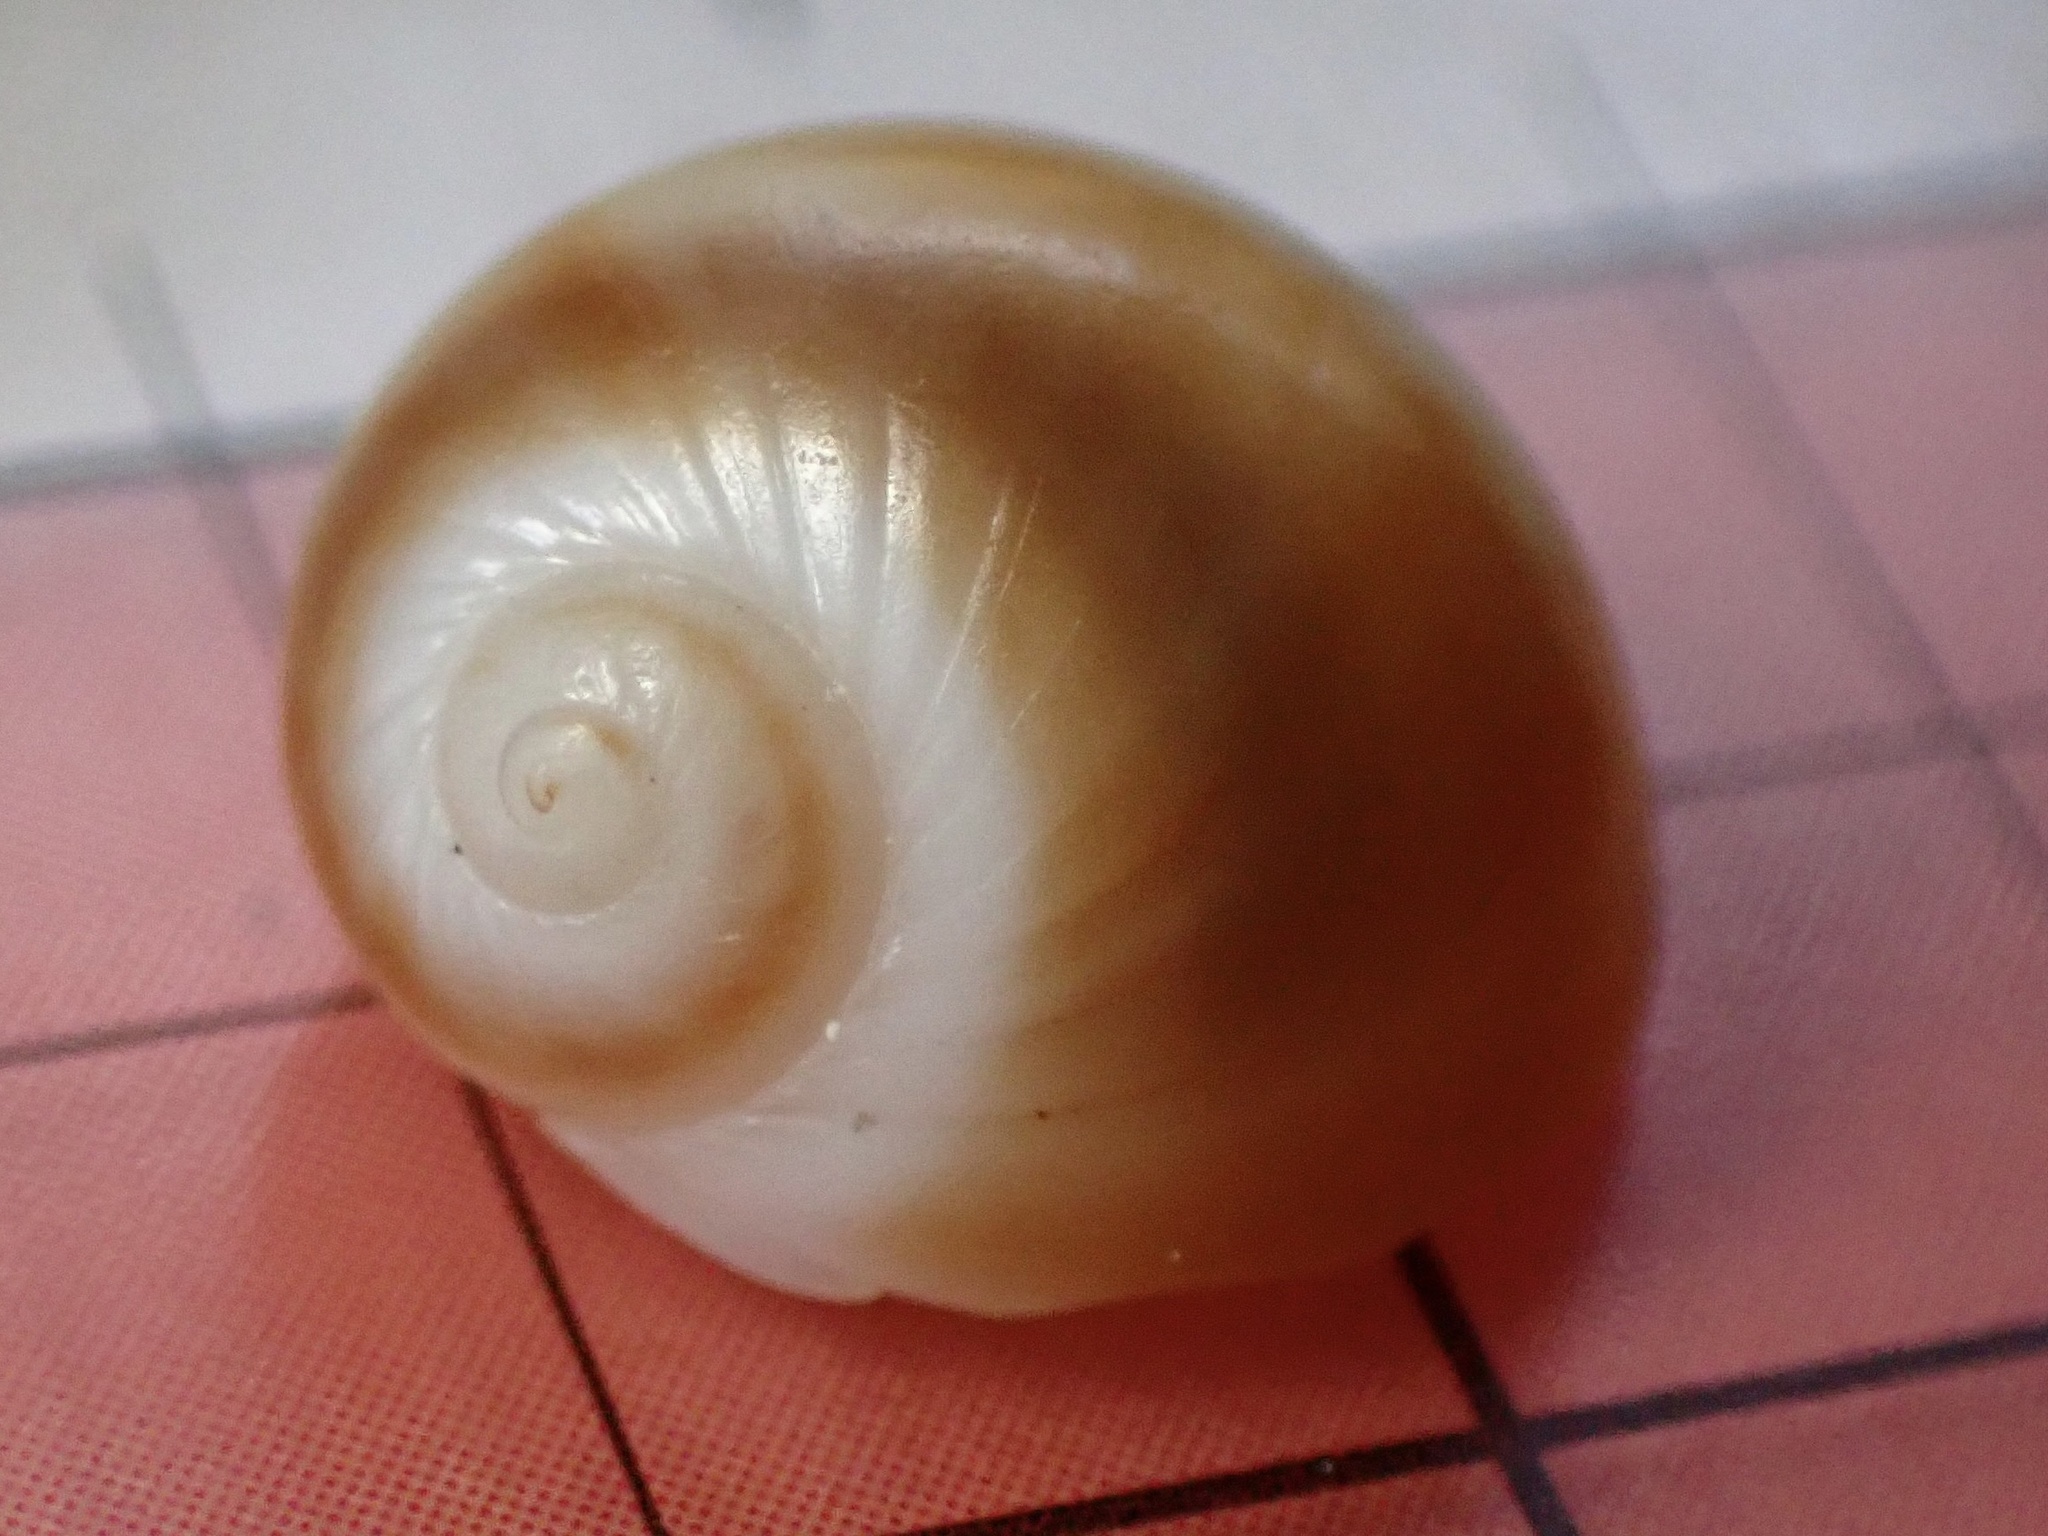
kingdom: Animalia
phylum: Mollusca
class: Gastropoda
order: Littorinimorpha
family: Naticidae
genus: Notocochlis
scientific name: Notocochlis gualteriana
